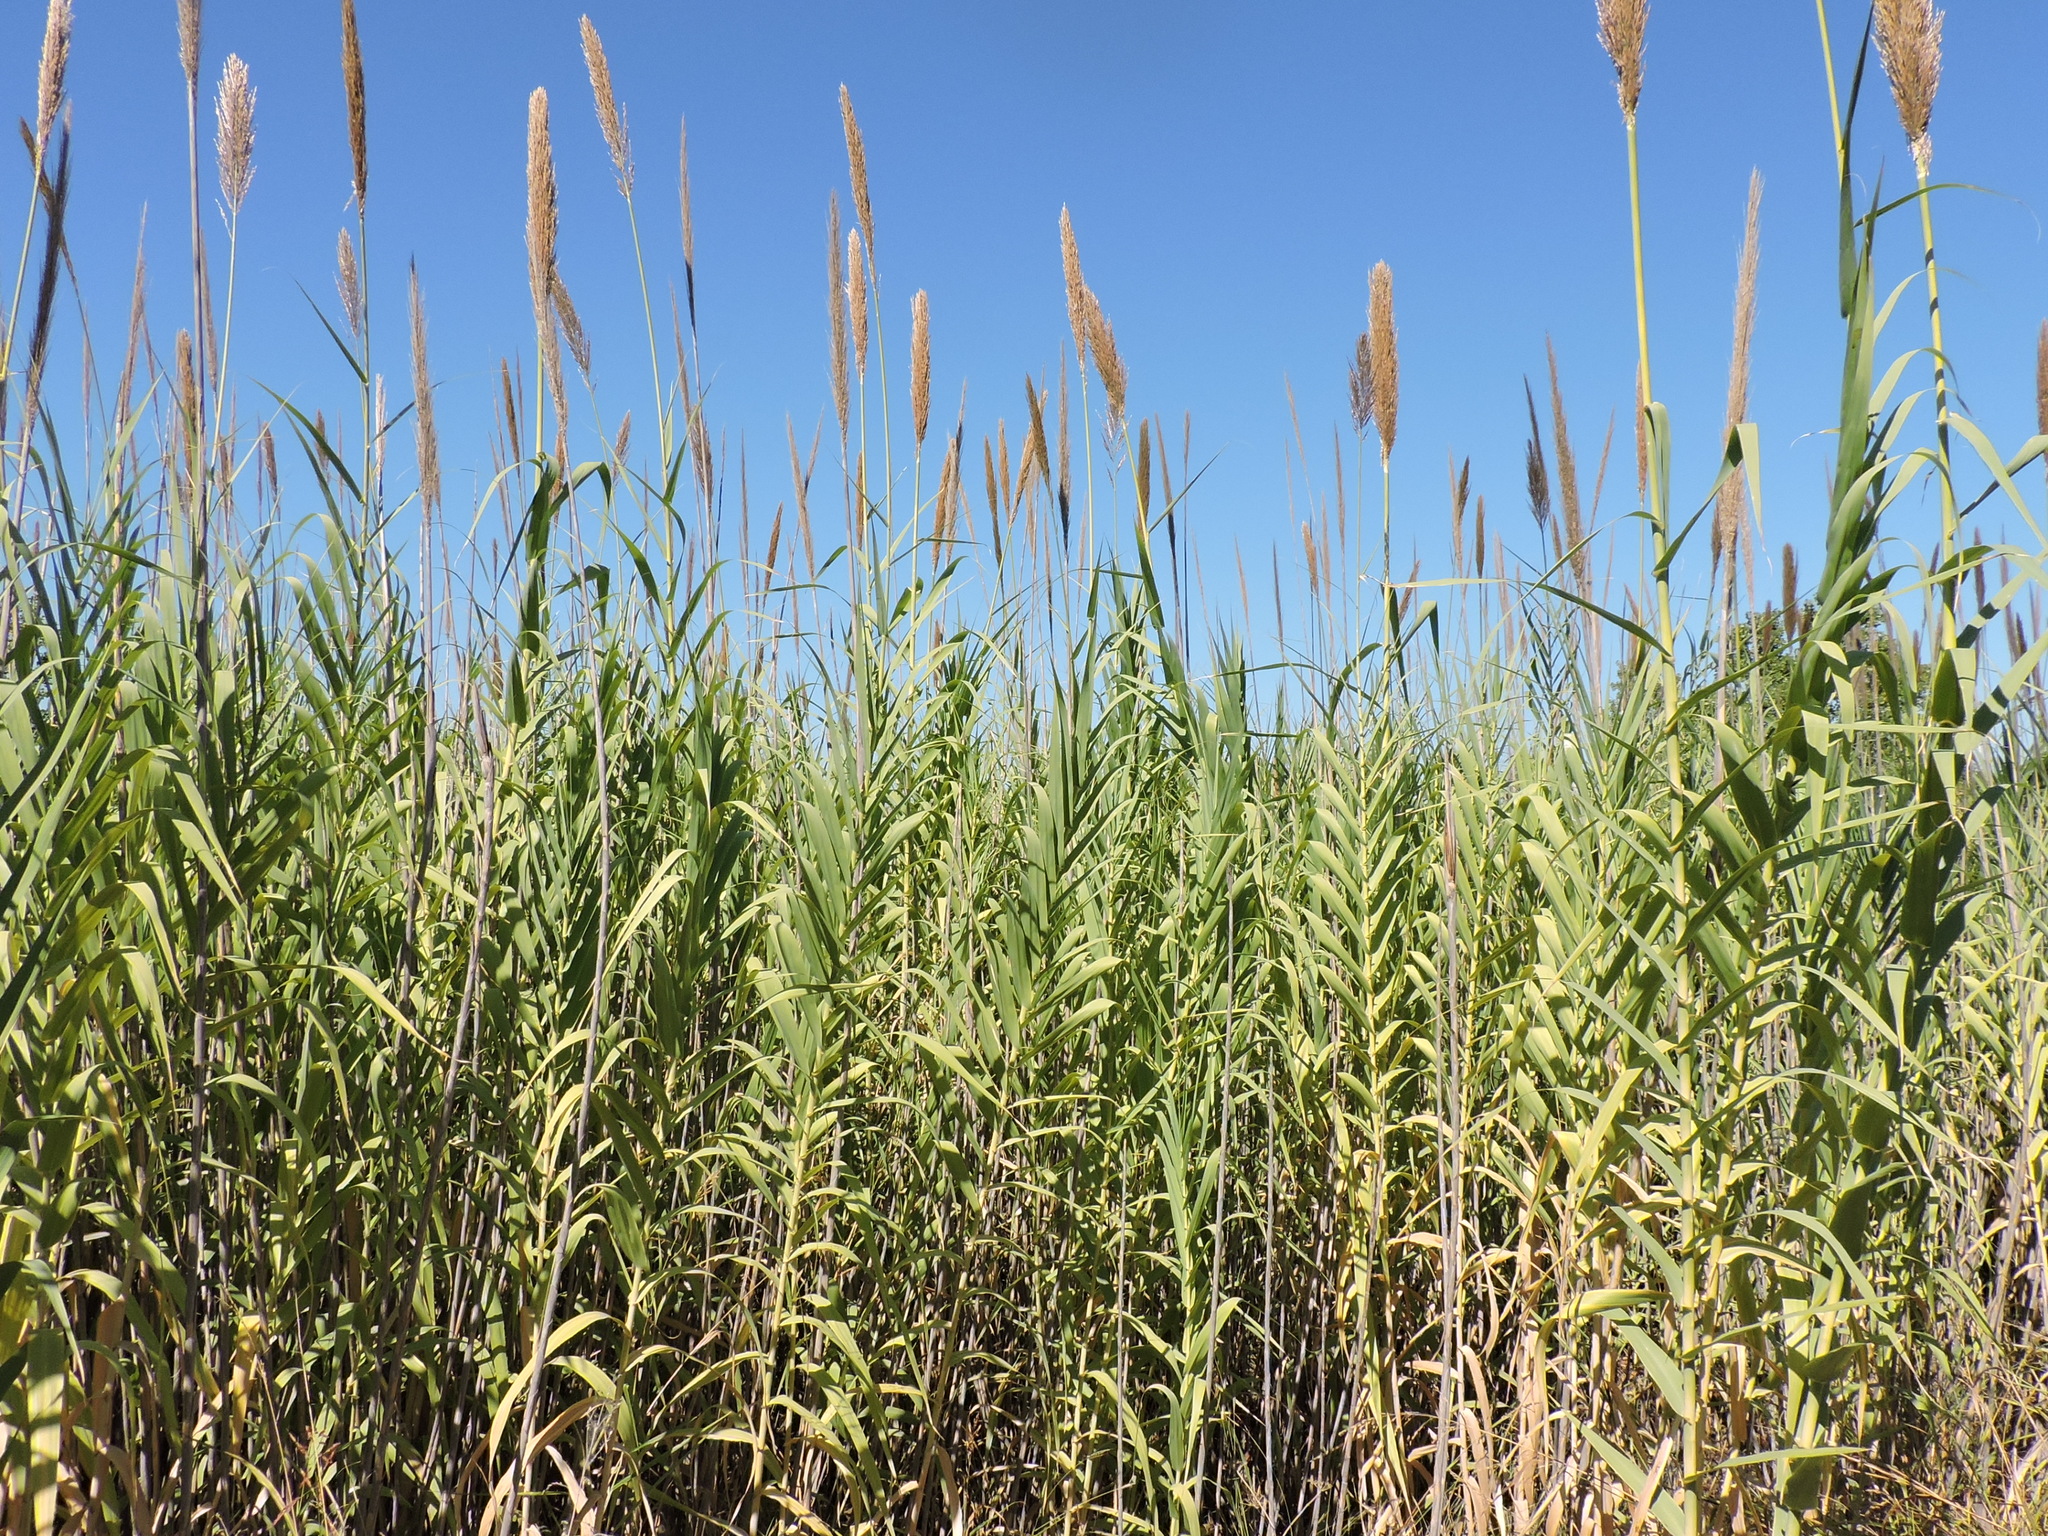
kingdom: Plantae
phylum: Tracheophyta
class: Liliopsida
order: Poales
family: Poaceae
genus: Arundo
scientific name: Arundo donax
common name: Giant reed
